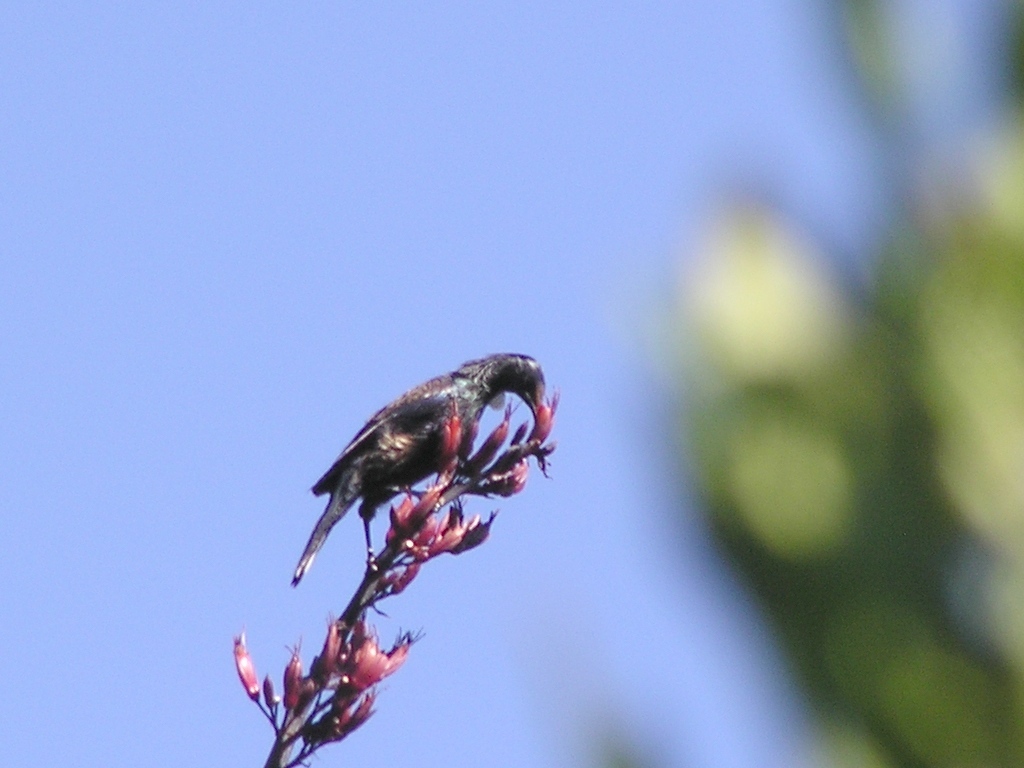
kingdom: Animalia
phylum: Chordata
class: Aves
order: Passeriformes
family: Meliphagidae
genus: Prosthemadera
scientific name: Prosthemadera novaeseelandiae
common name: Tui
